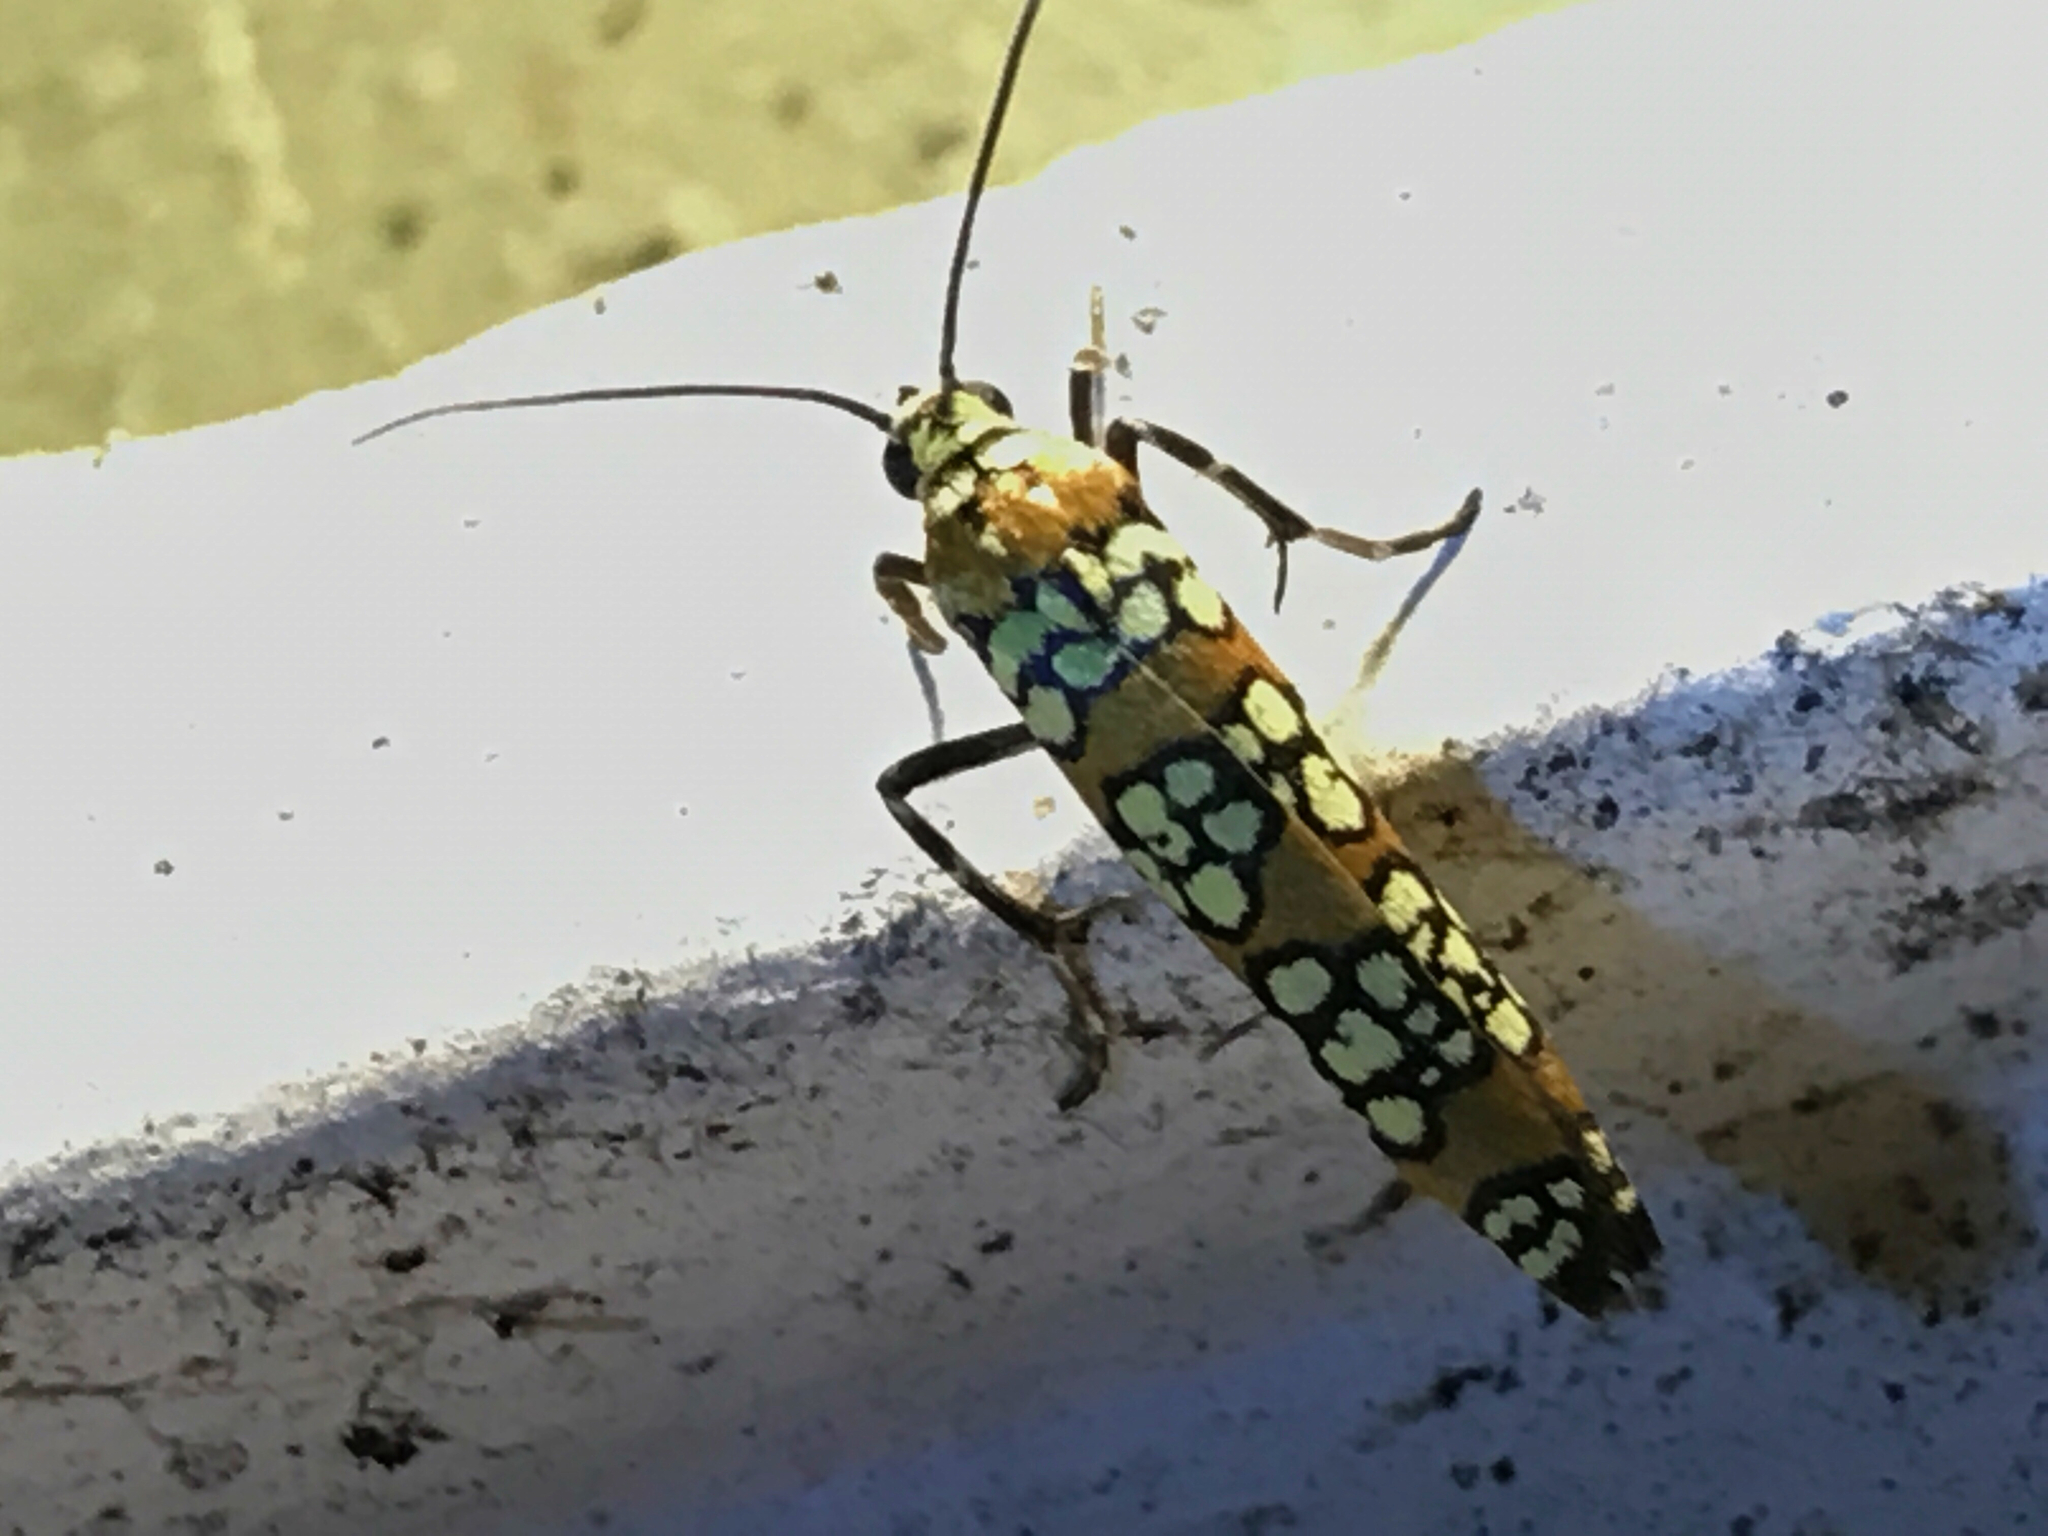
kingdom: Animalia
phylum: Arthropoda
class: Insecta
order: Lepidoptera
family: Attevidae
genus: Atteva
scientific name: Atteva punctella
